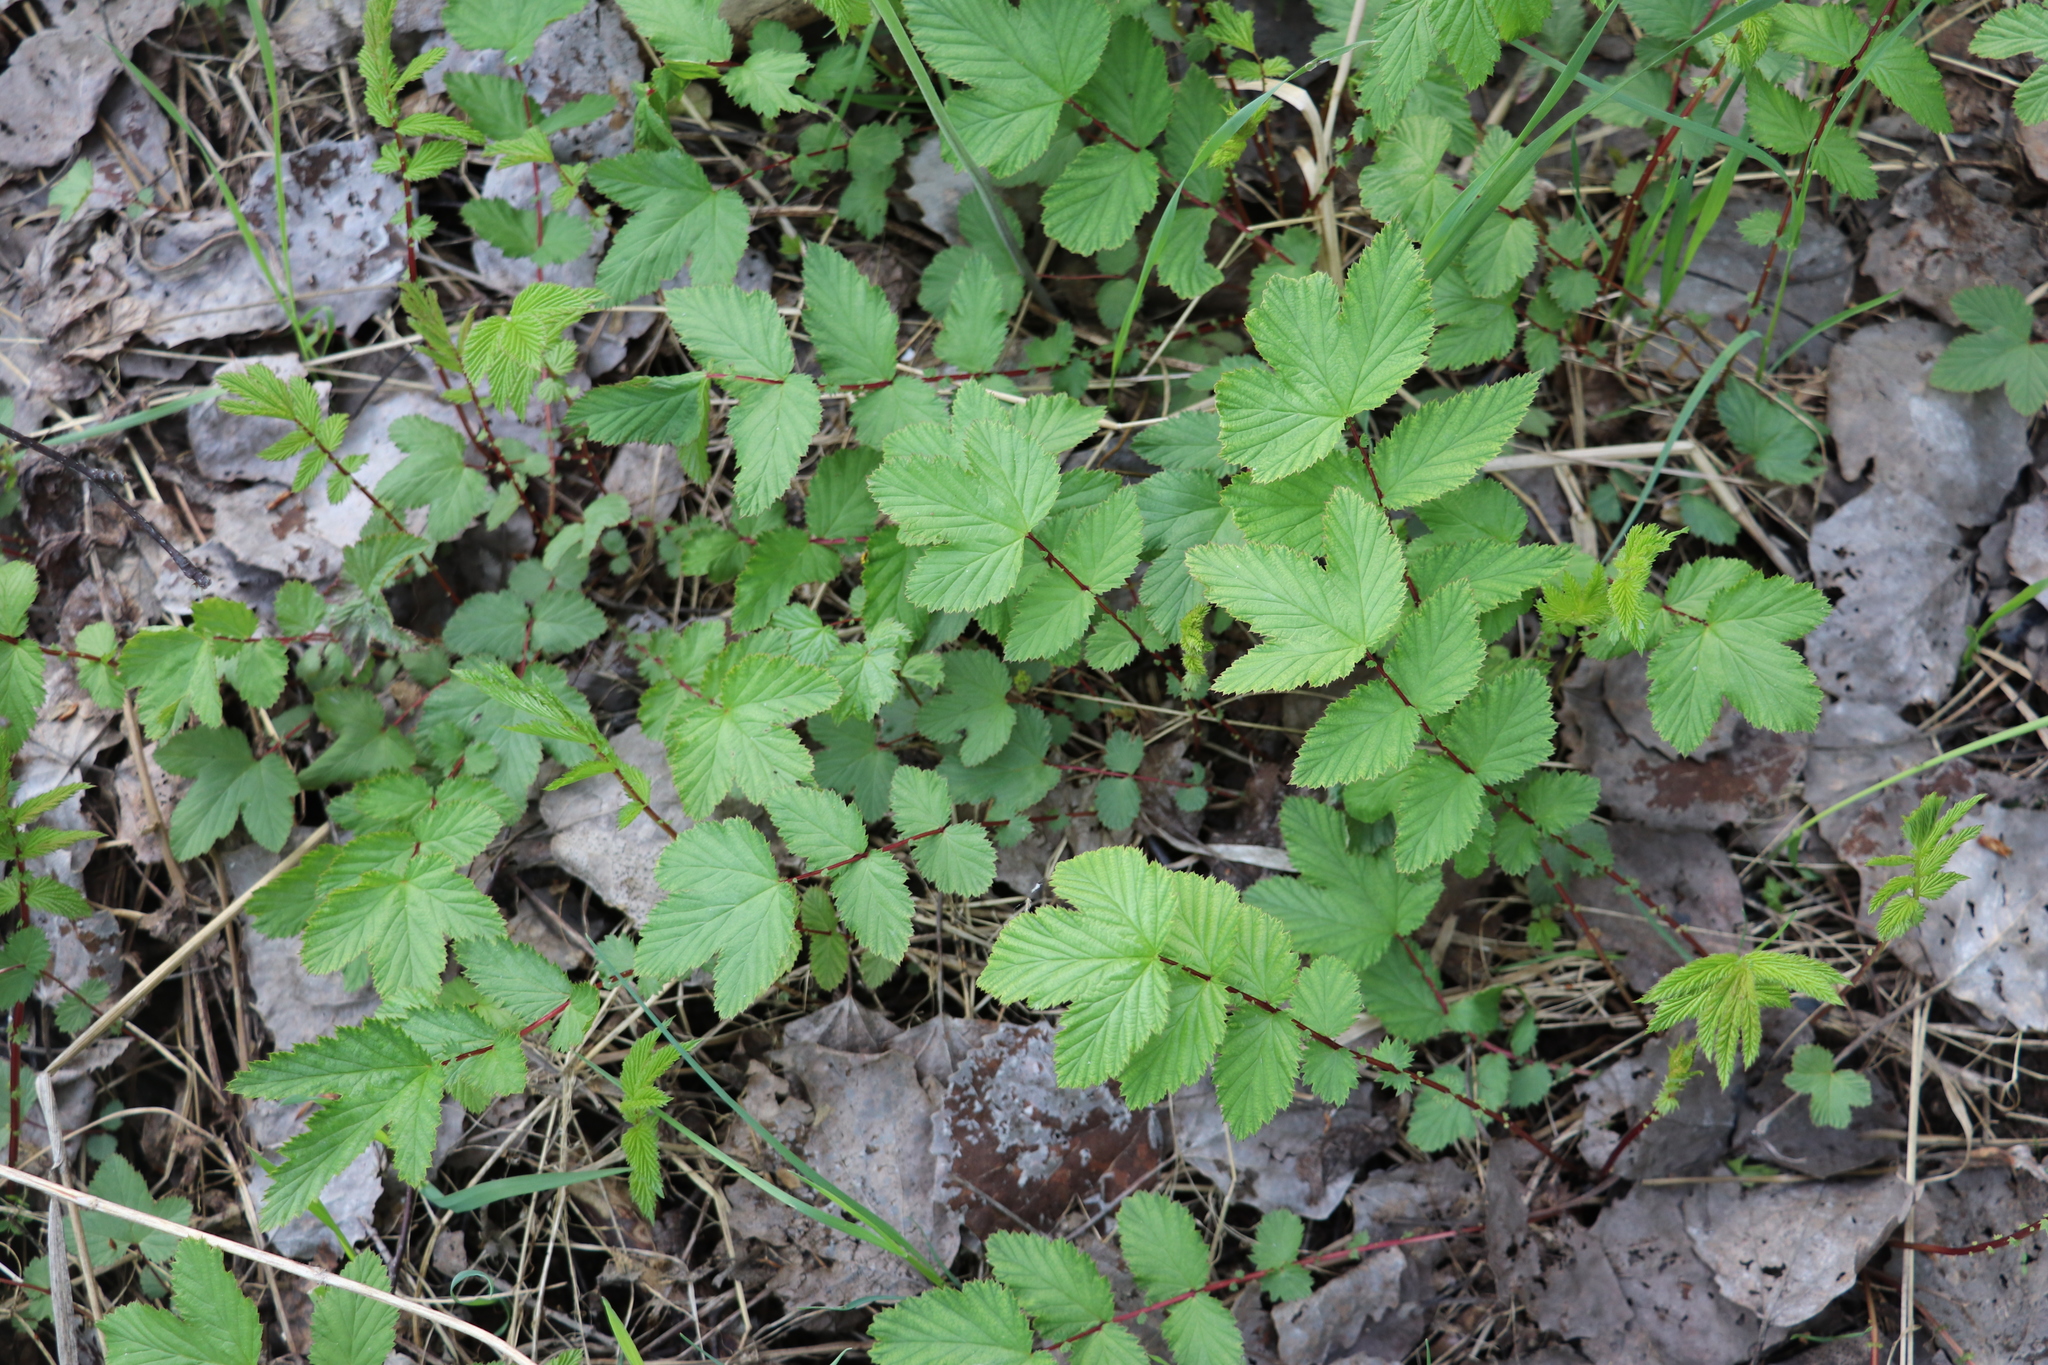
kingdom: Plantae
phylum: Tracheophyta
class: Magnoliopsida
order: Rosales
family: Rosaceae
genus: Filipendula
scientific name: Filipendula ulmaria
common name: Meadowsweet
